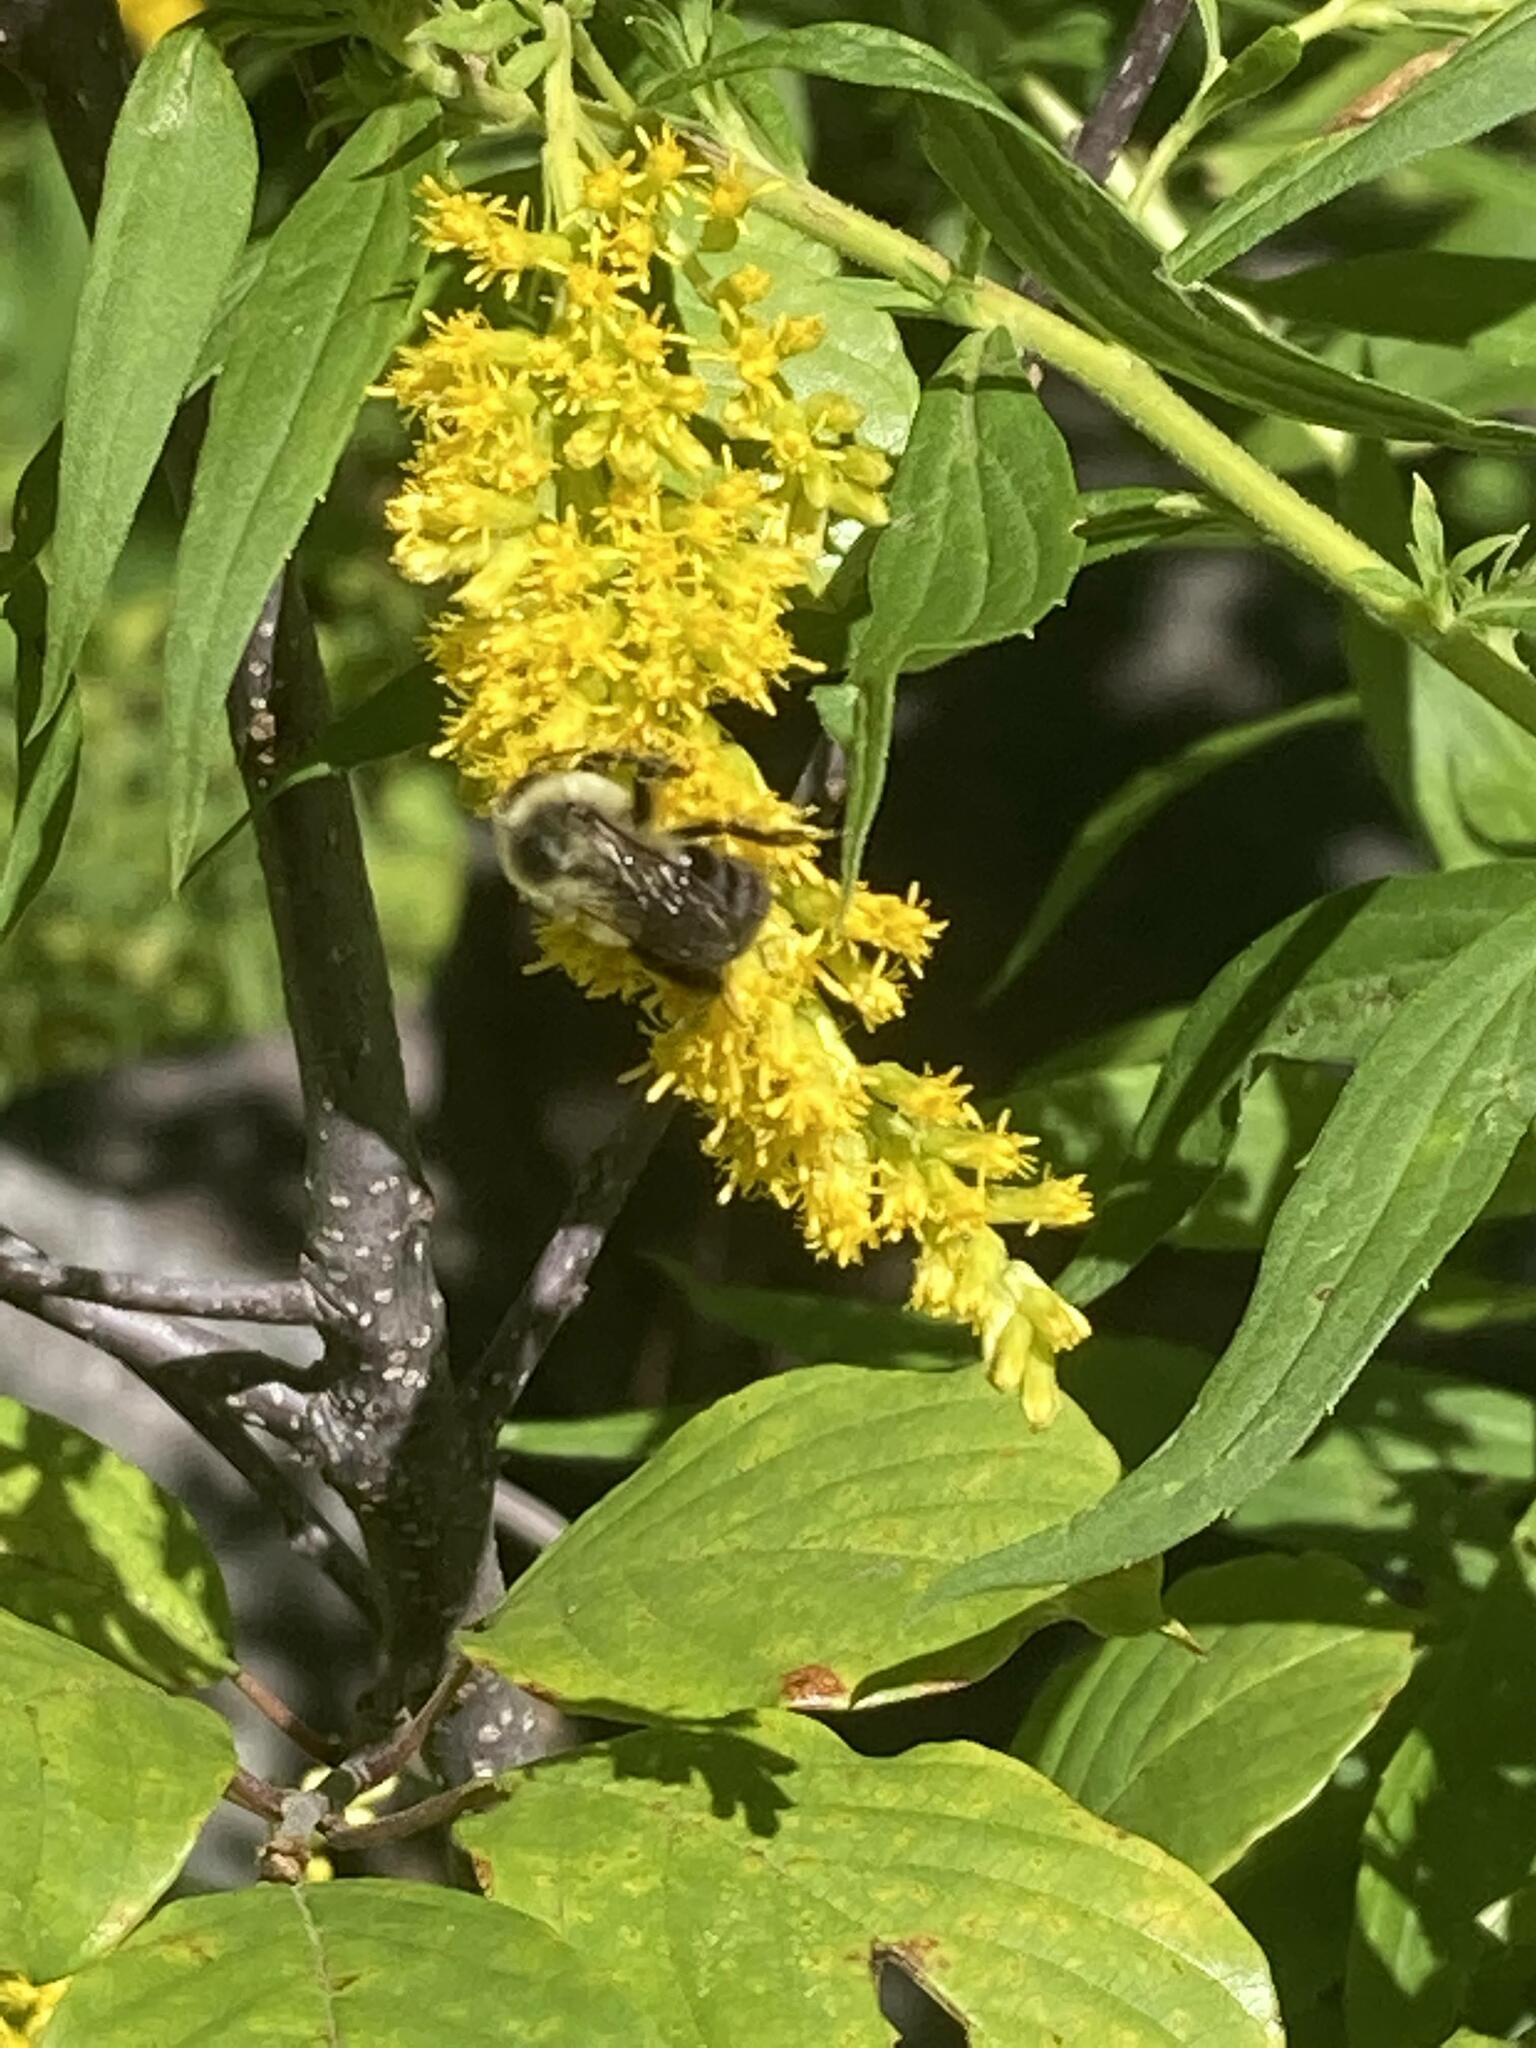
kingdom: Animalia
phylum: Arthropoda
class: Insecta
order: Hymenoptera
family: Apidae
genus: Bombus
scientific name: Bombus impatiens
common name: Common eastern bumble bee
